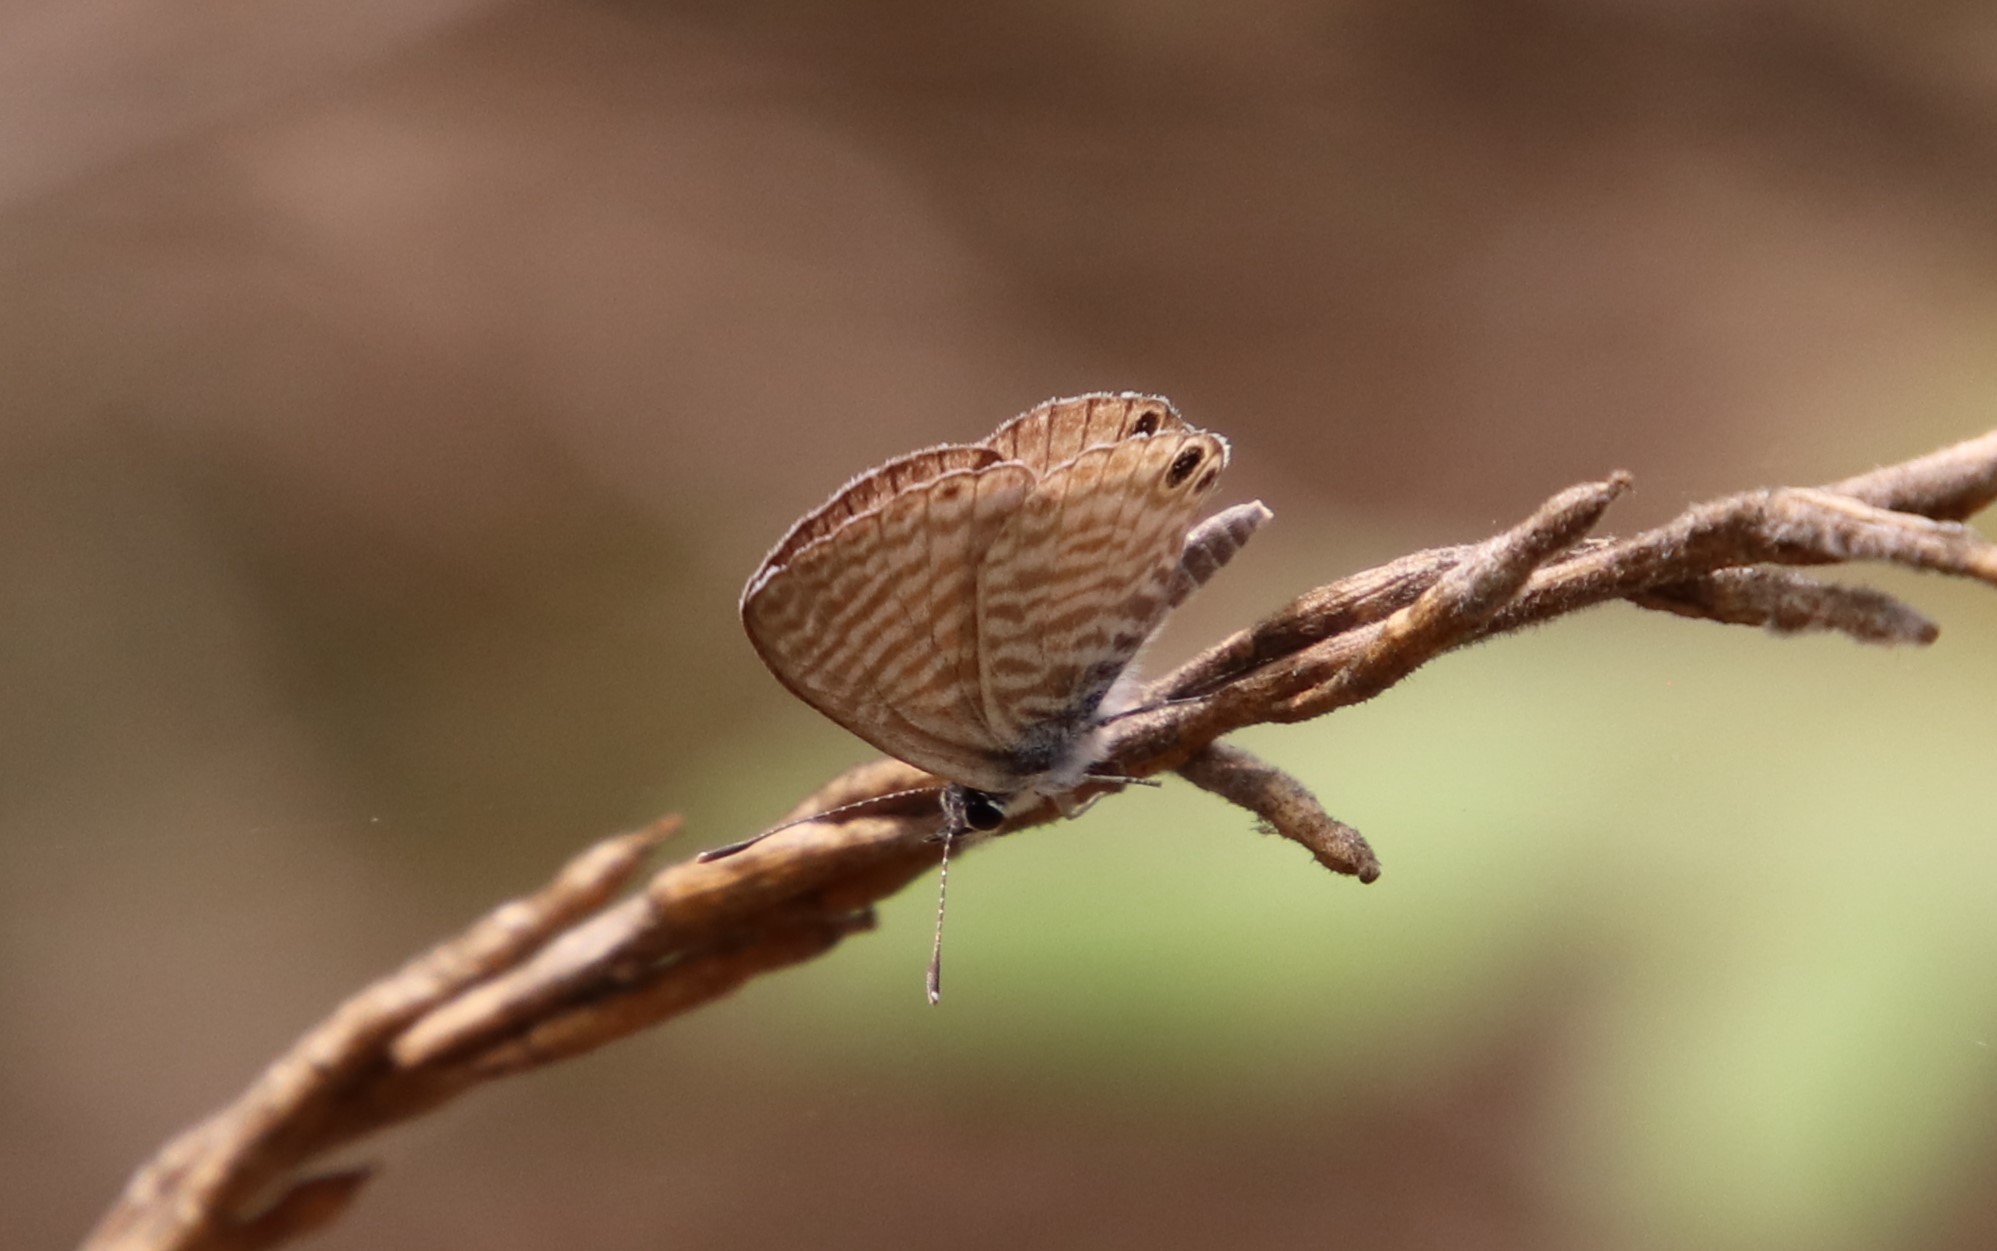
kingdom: Animalia
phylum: Arthropoda
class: Insecta
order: Lepidoptera
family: Lycaenidae
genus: Leptotes
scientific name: Leptotes marina
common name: Marine blue
